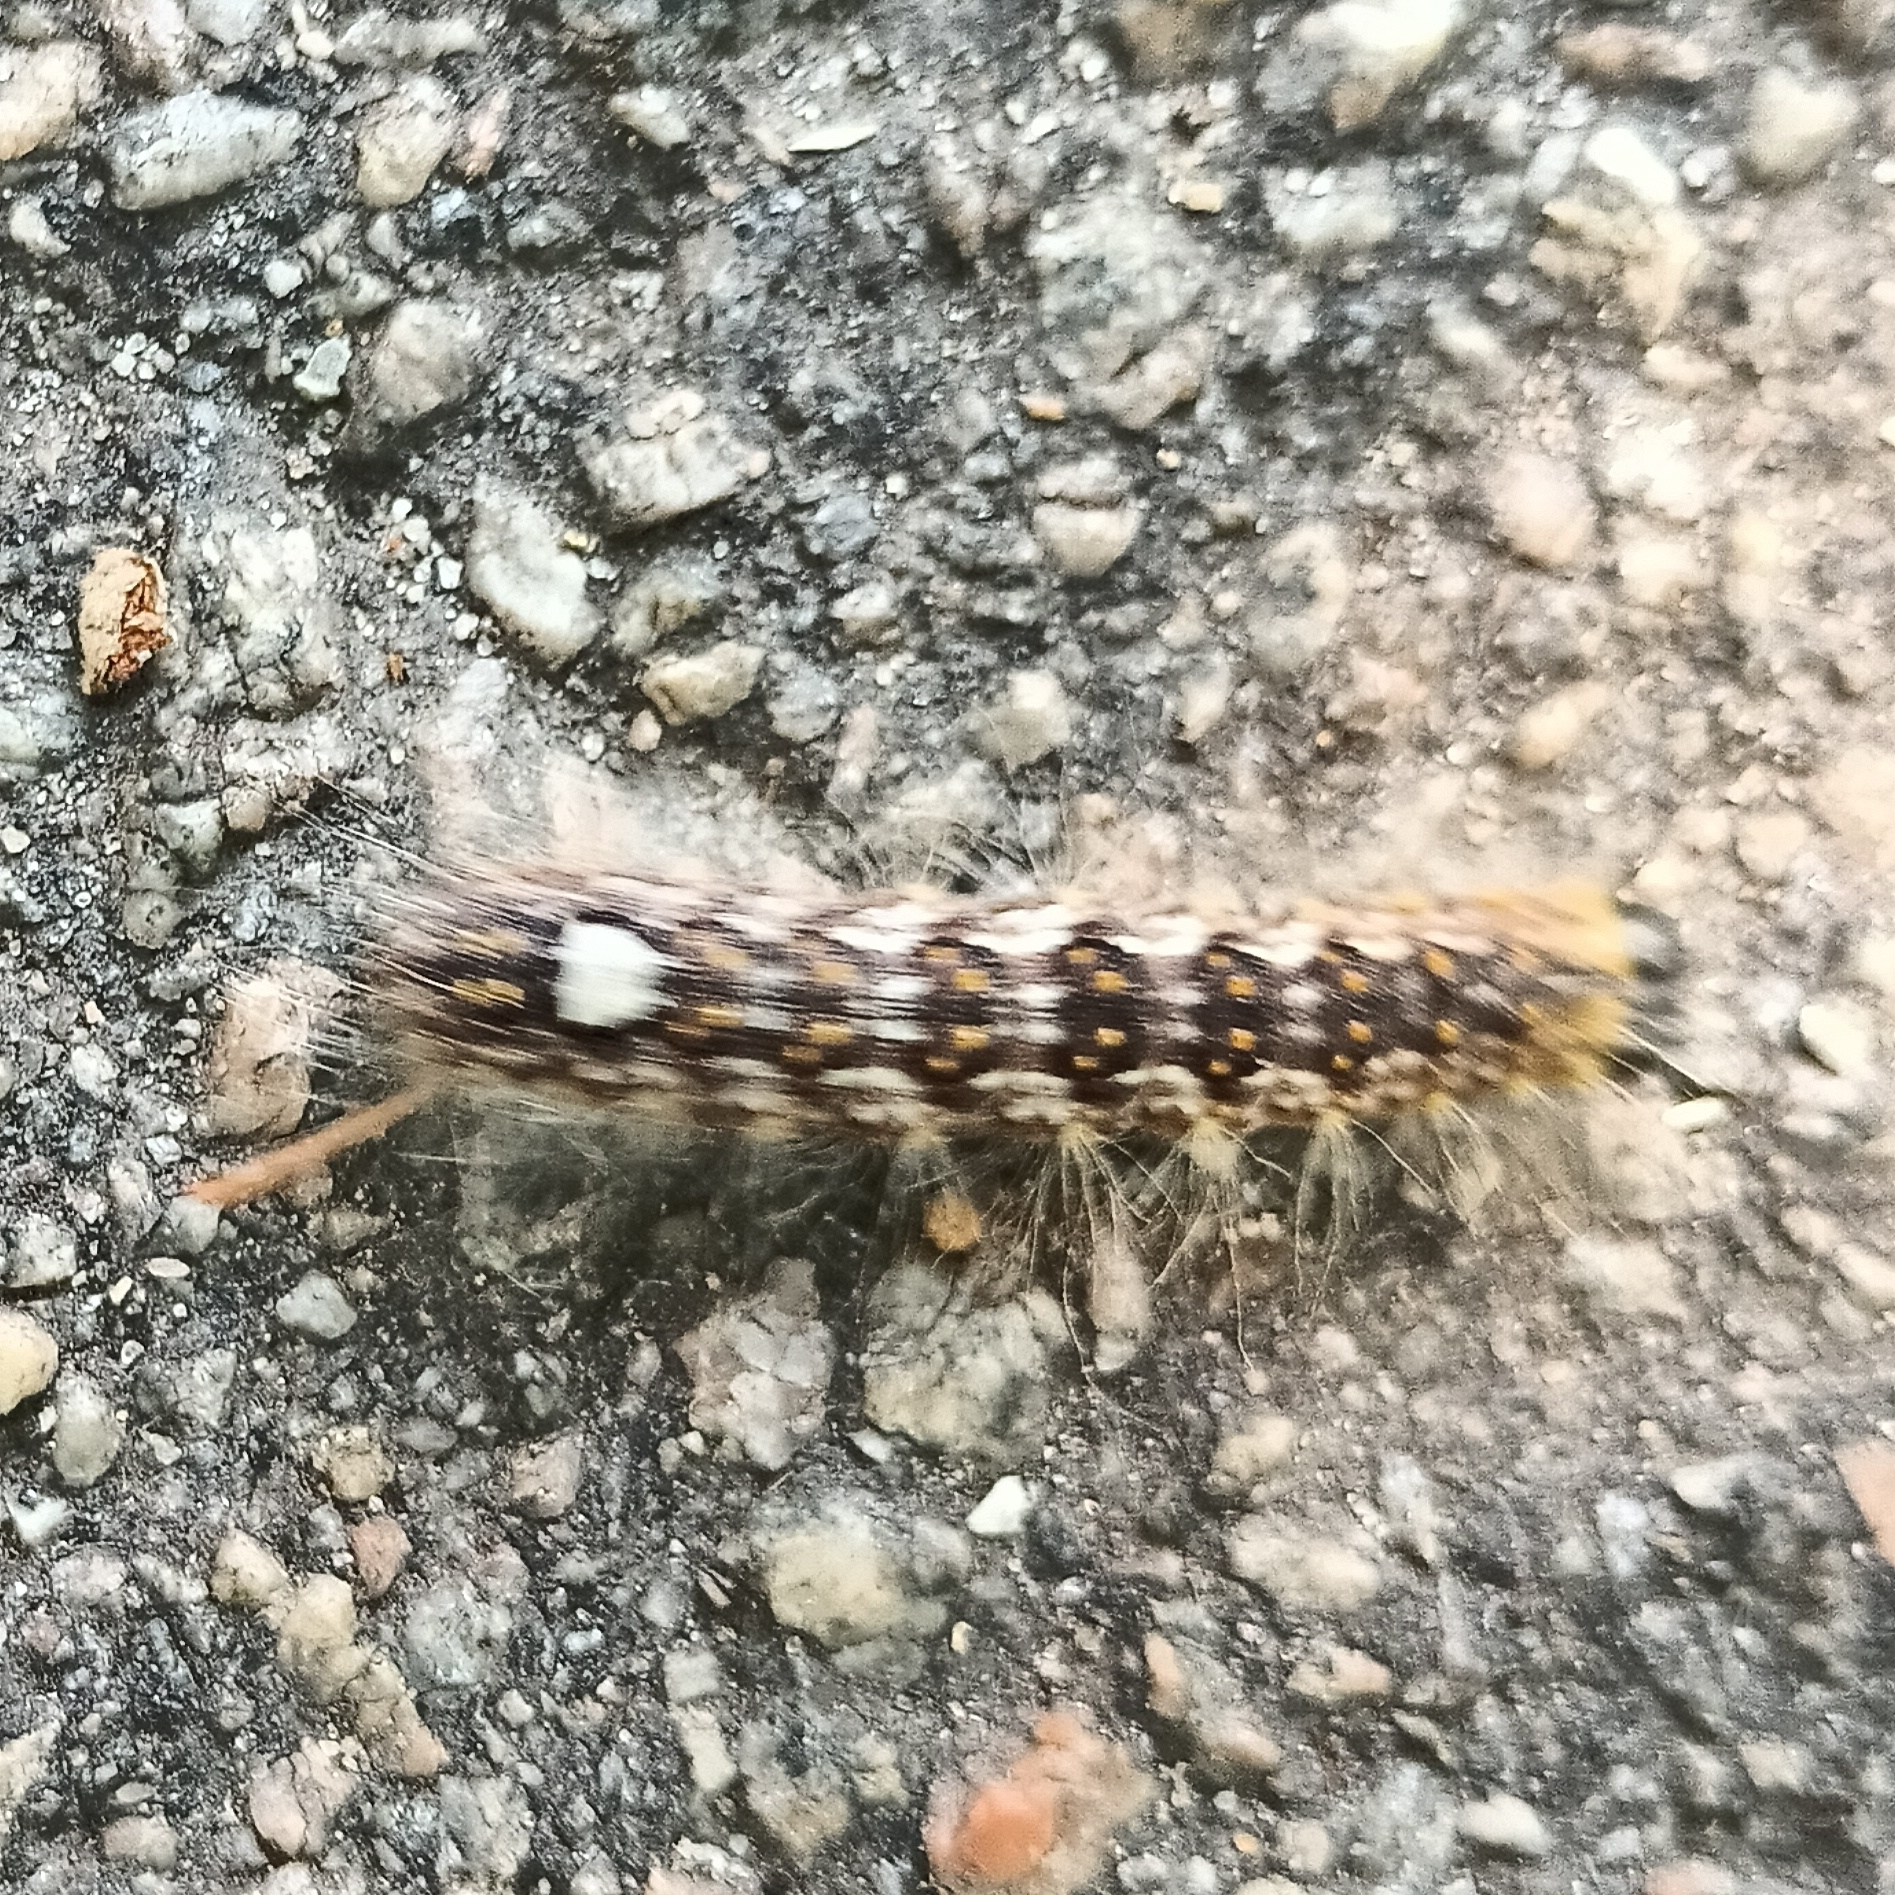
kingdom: Animalia
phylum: Arthropoda
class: Insecta
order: Lepidoptera
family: Noctuidae
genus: Acronicta
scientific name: Acronicta megacephala
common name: Poplar grey
